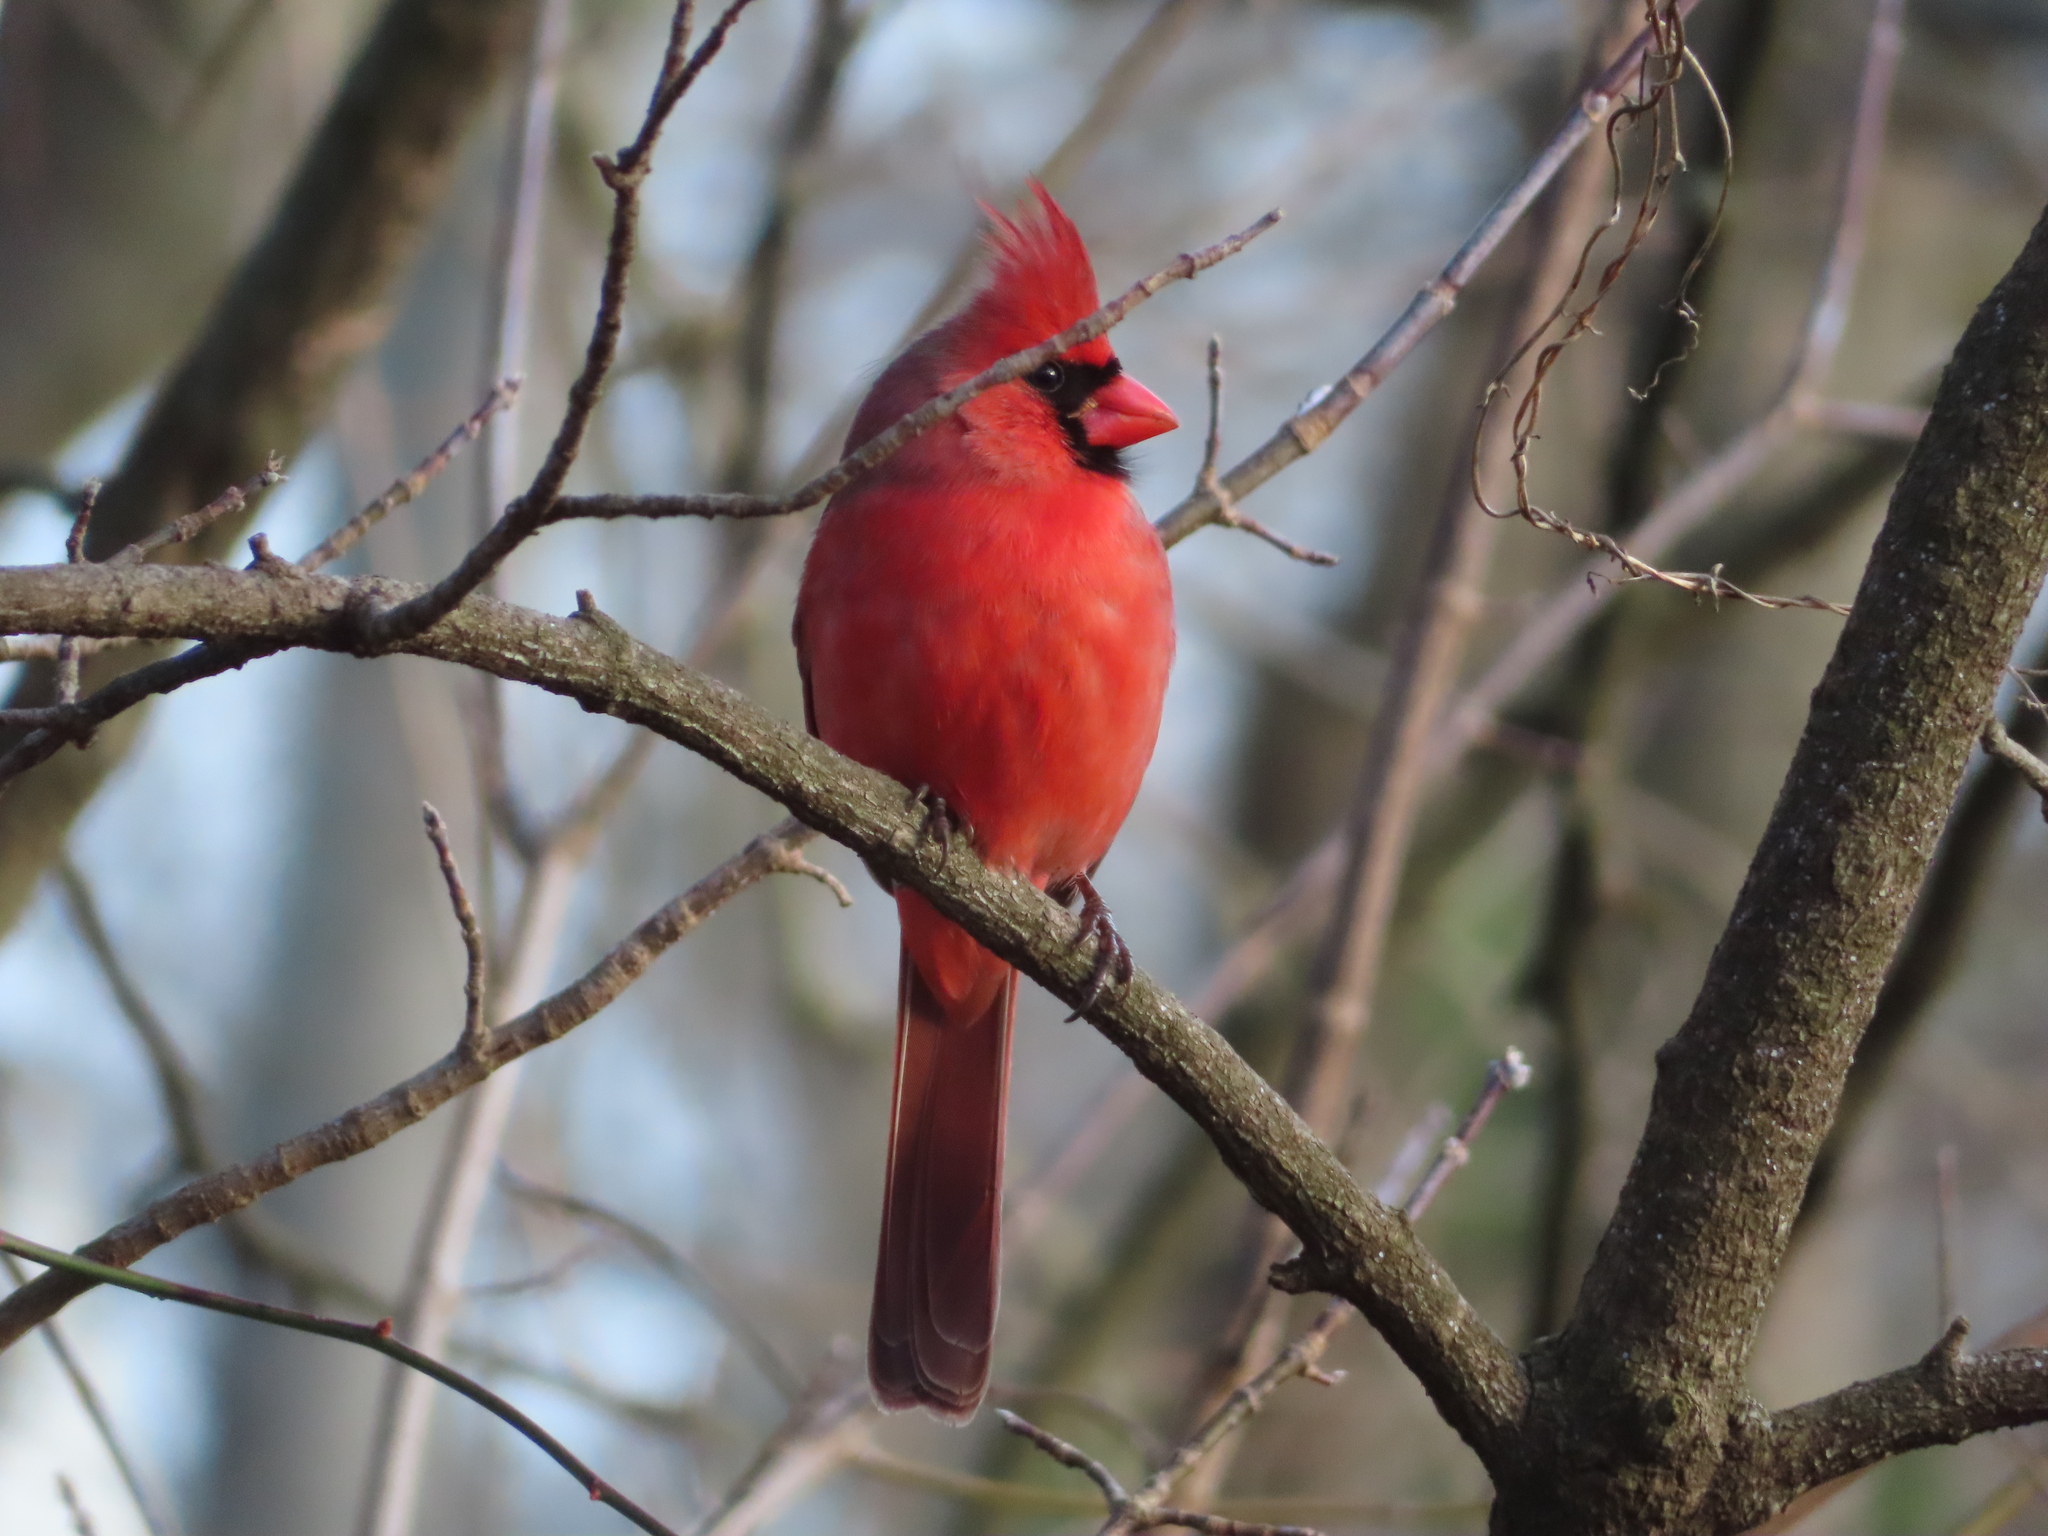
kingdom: Animalia
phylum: Chordata
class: Aves
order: Passeriformes
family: Cardinalidae
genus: Cardinalis
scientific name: Cardinalis cardinalis
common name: Northern cardinal
